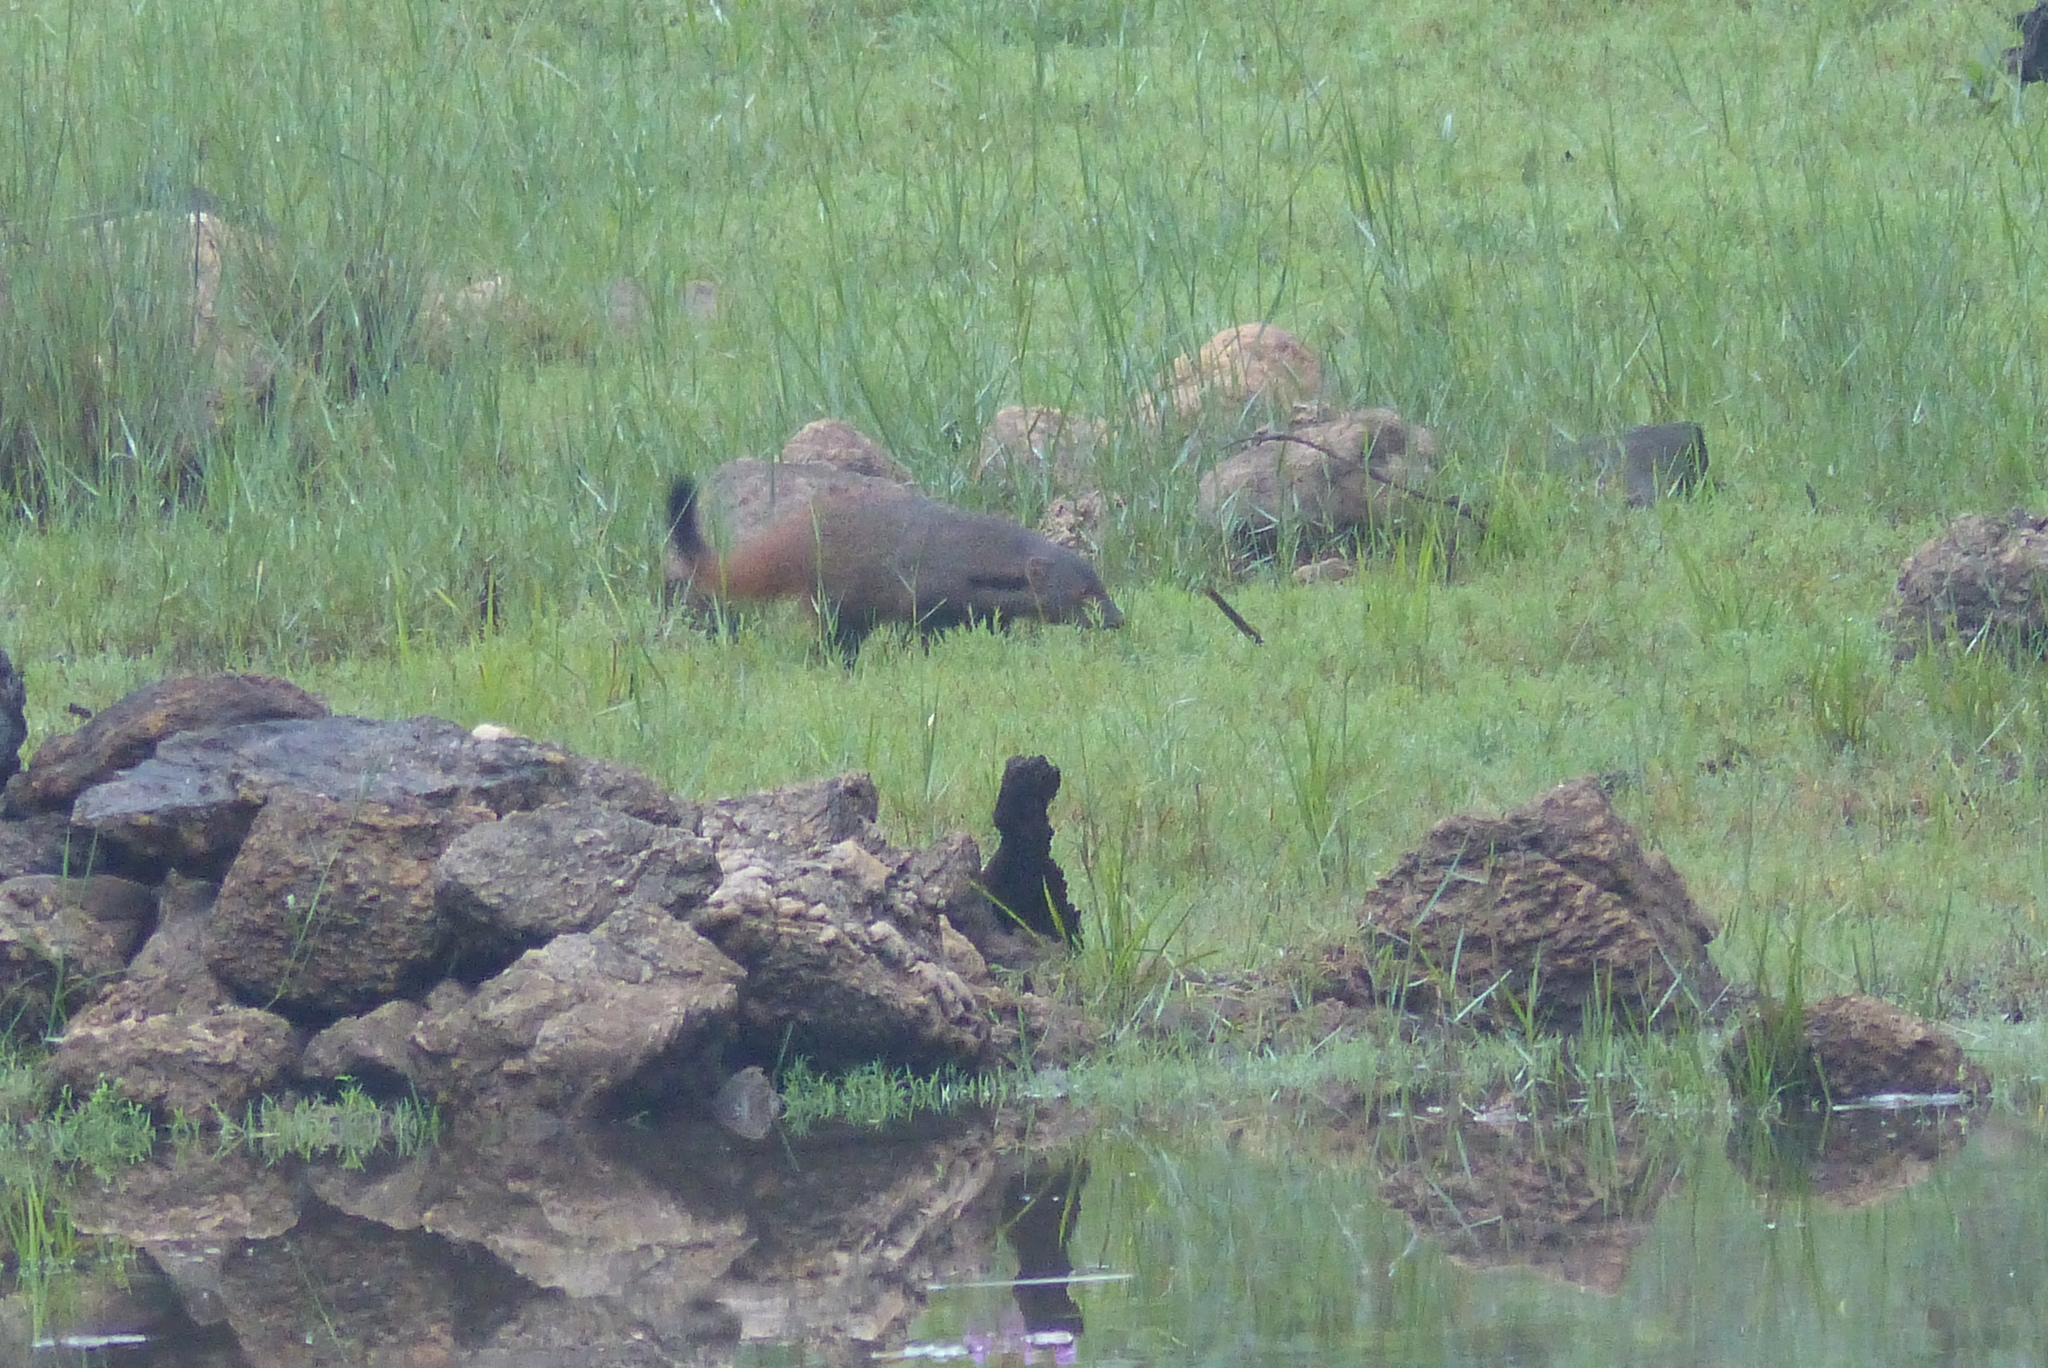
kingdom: Animalia
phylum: Chordata
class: Mammalia
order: Carnivora
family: Herpestidae
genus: Herpestes
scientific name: Herpestes vitticollis
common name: Stripe-necked mongoose
